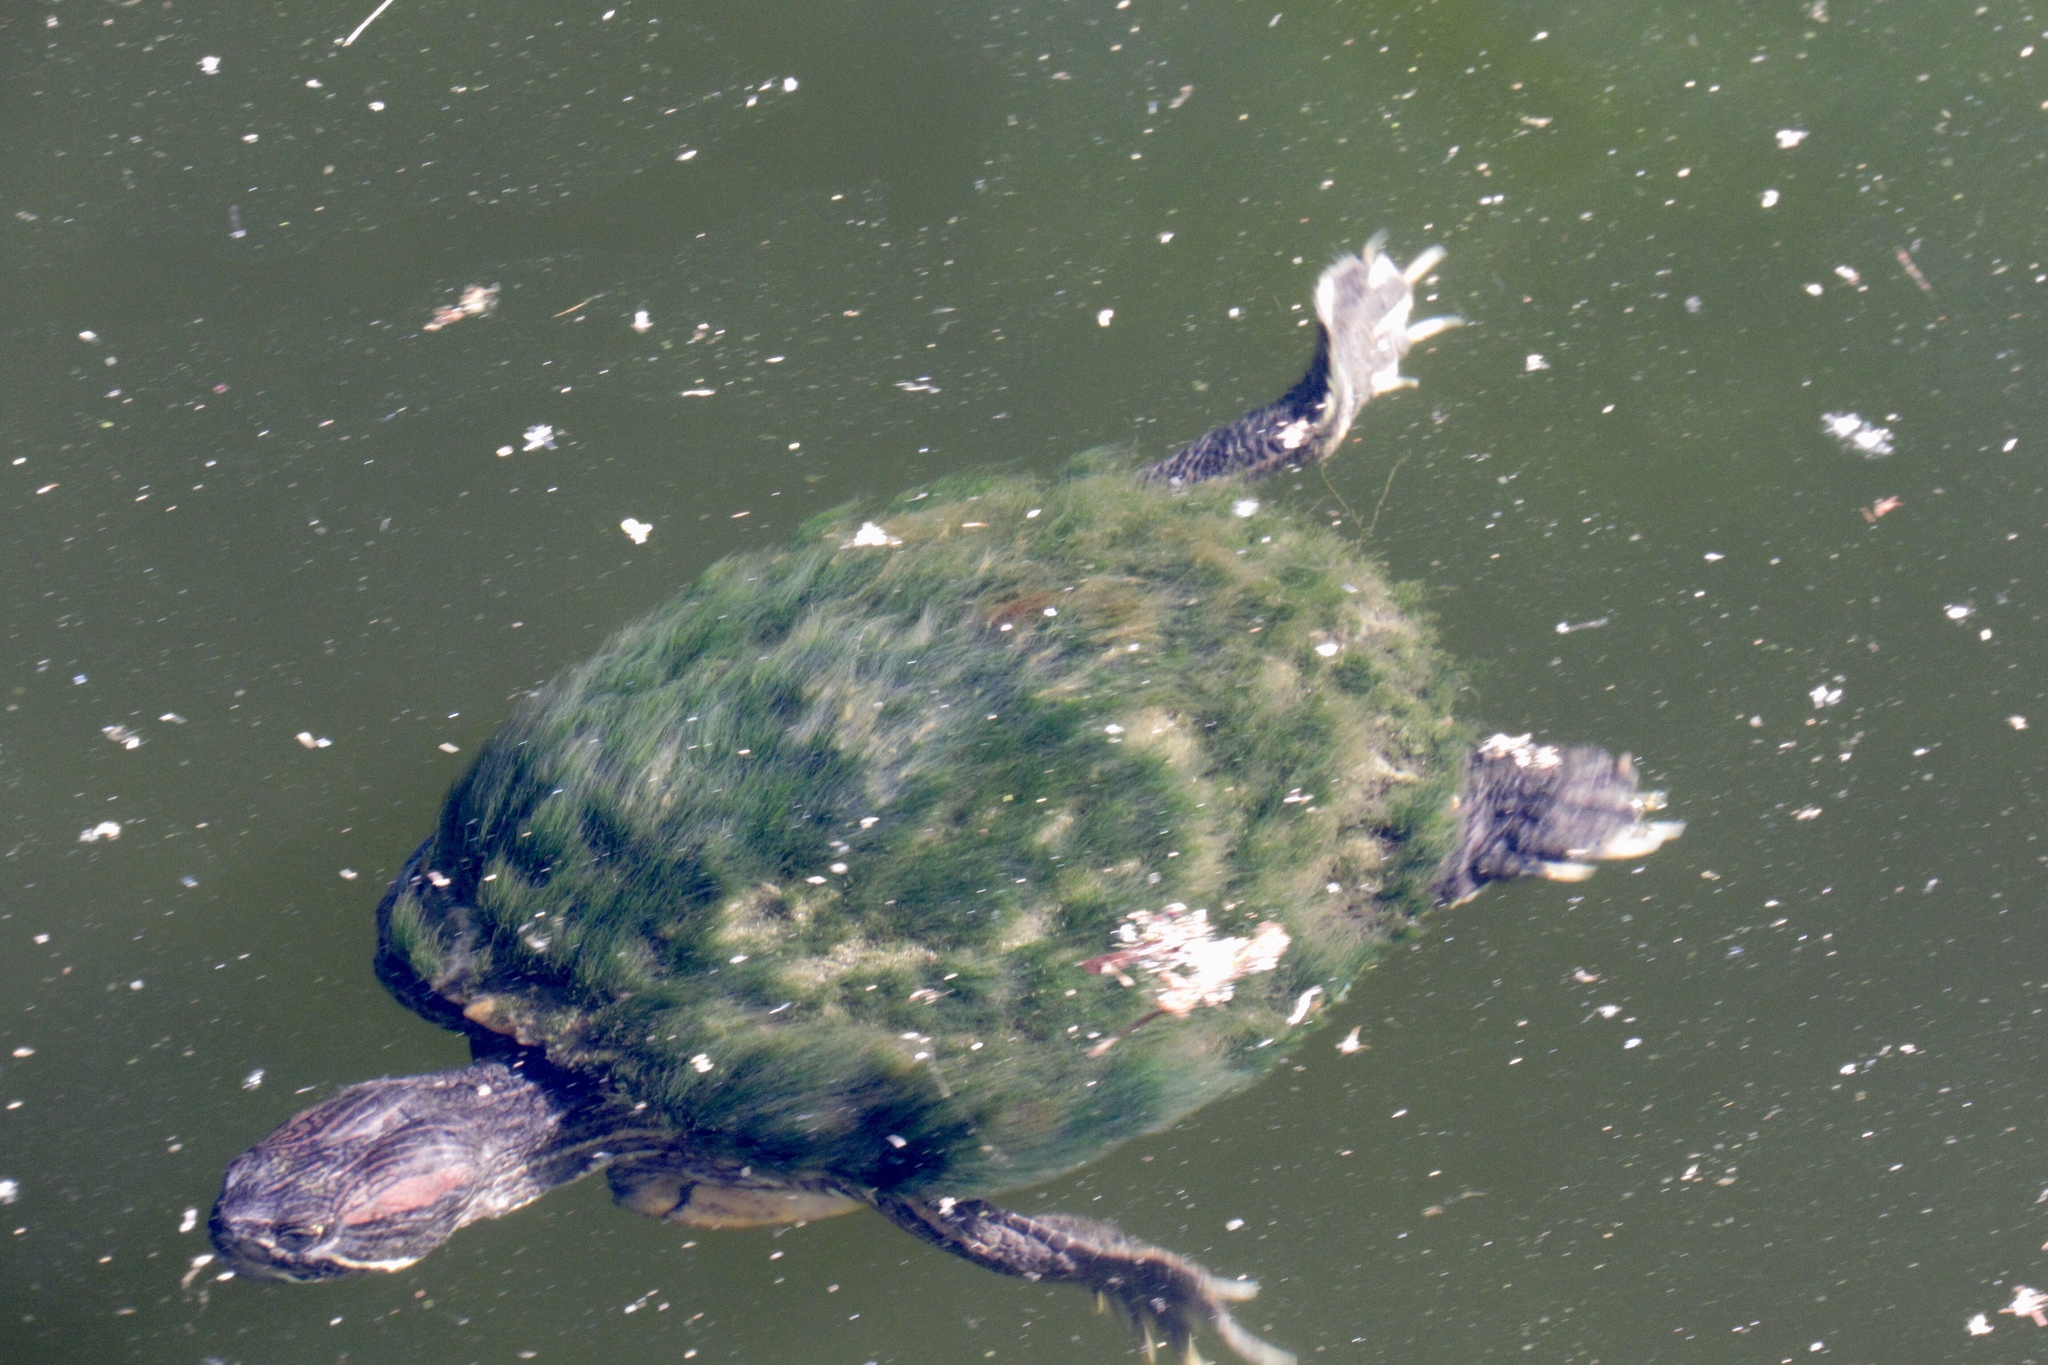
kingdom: Animalia
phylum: Chordata
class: Testudines
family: Emydidae
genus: Trachemys
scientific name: Trachemys scripta
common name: Slider
